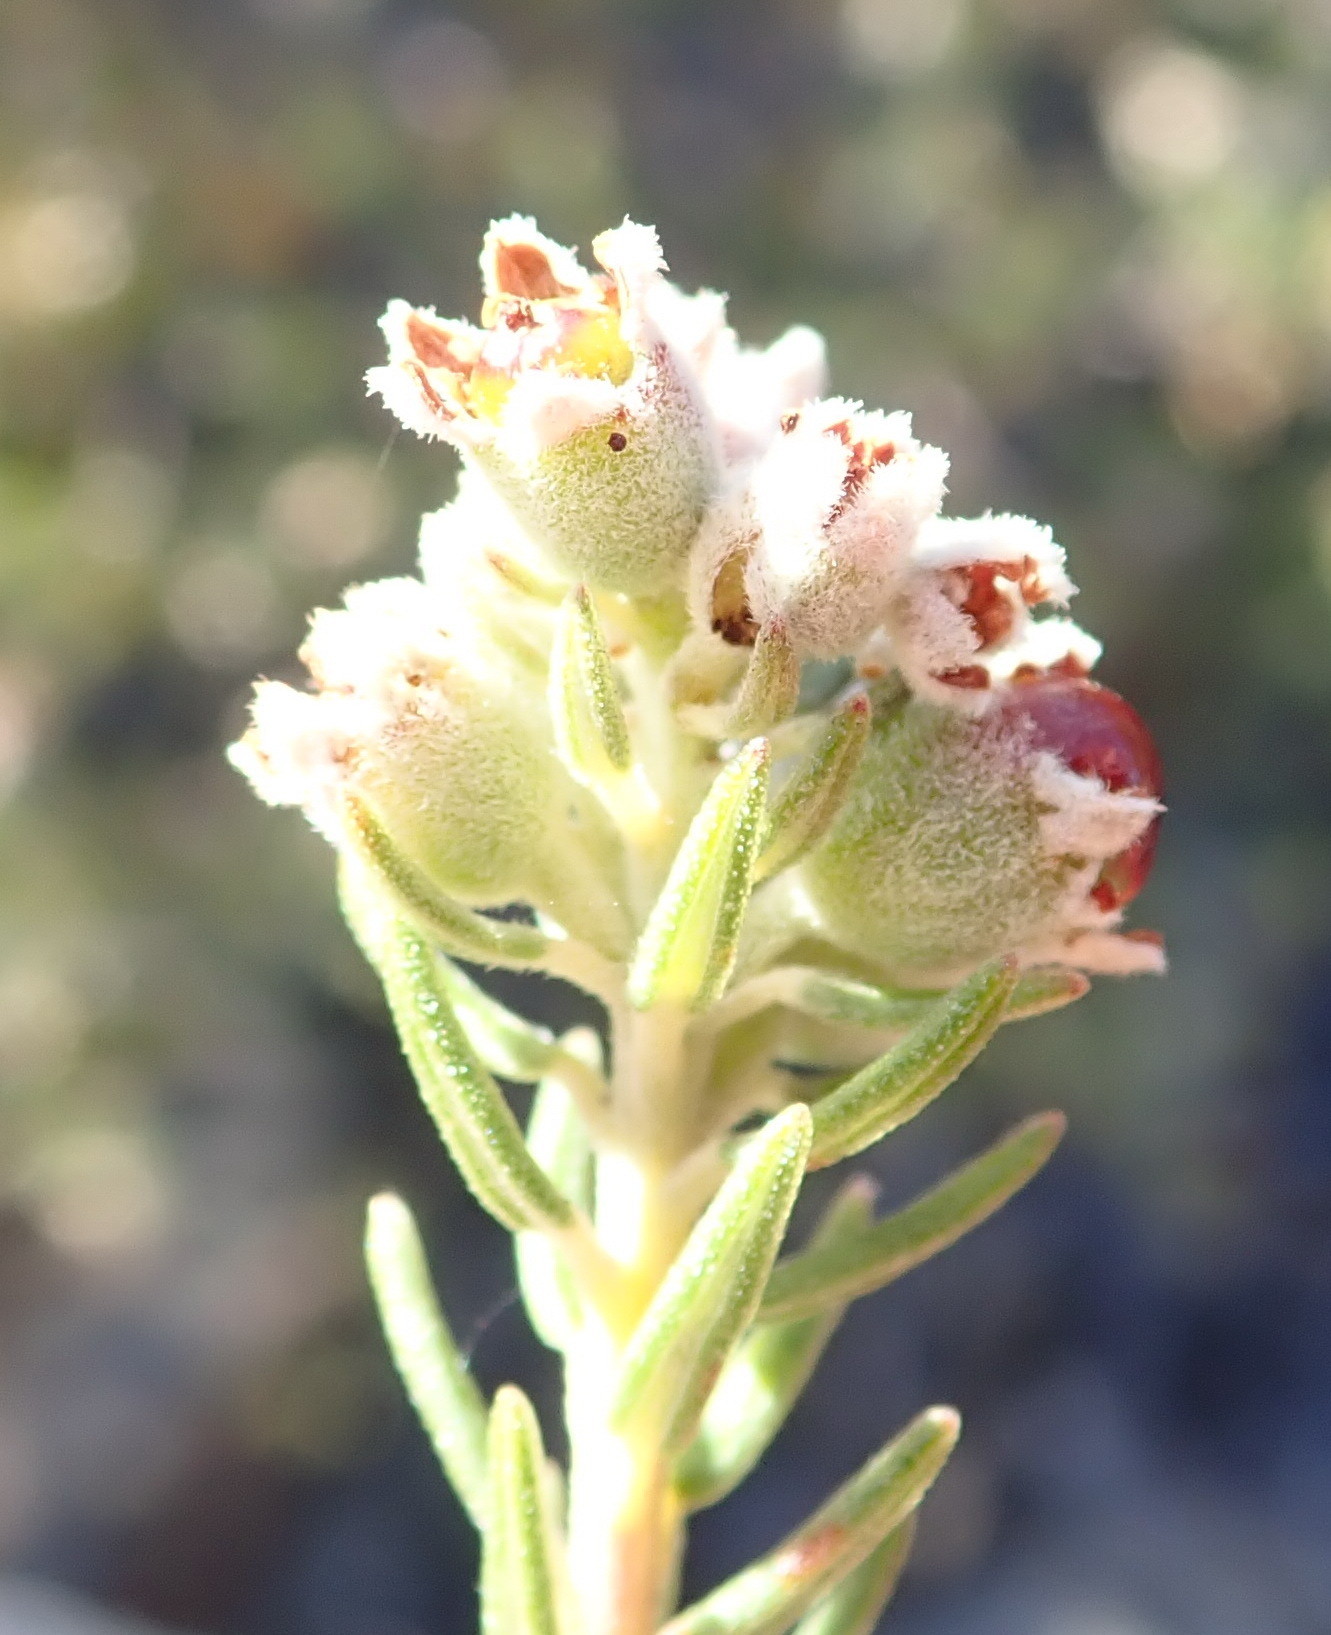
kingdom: Plantae
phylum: Tracheophyta
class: Magnoliopsida
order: Rosales
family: Rhamnaceae
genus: Phylica
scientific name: Phylica purpurea
